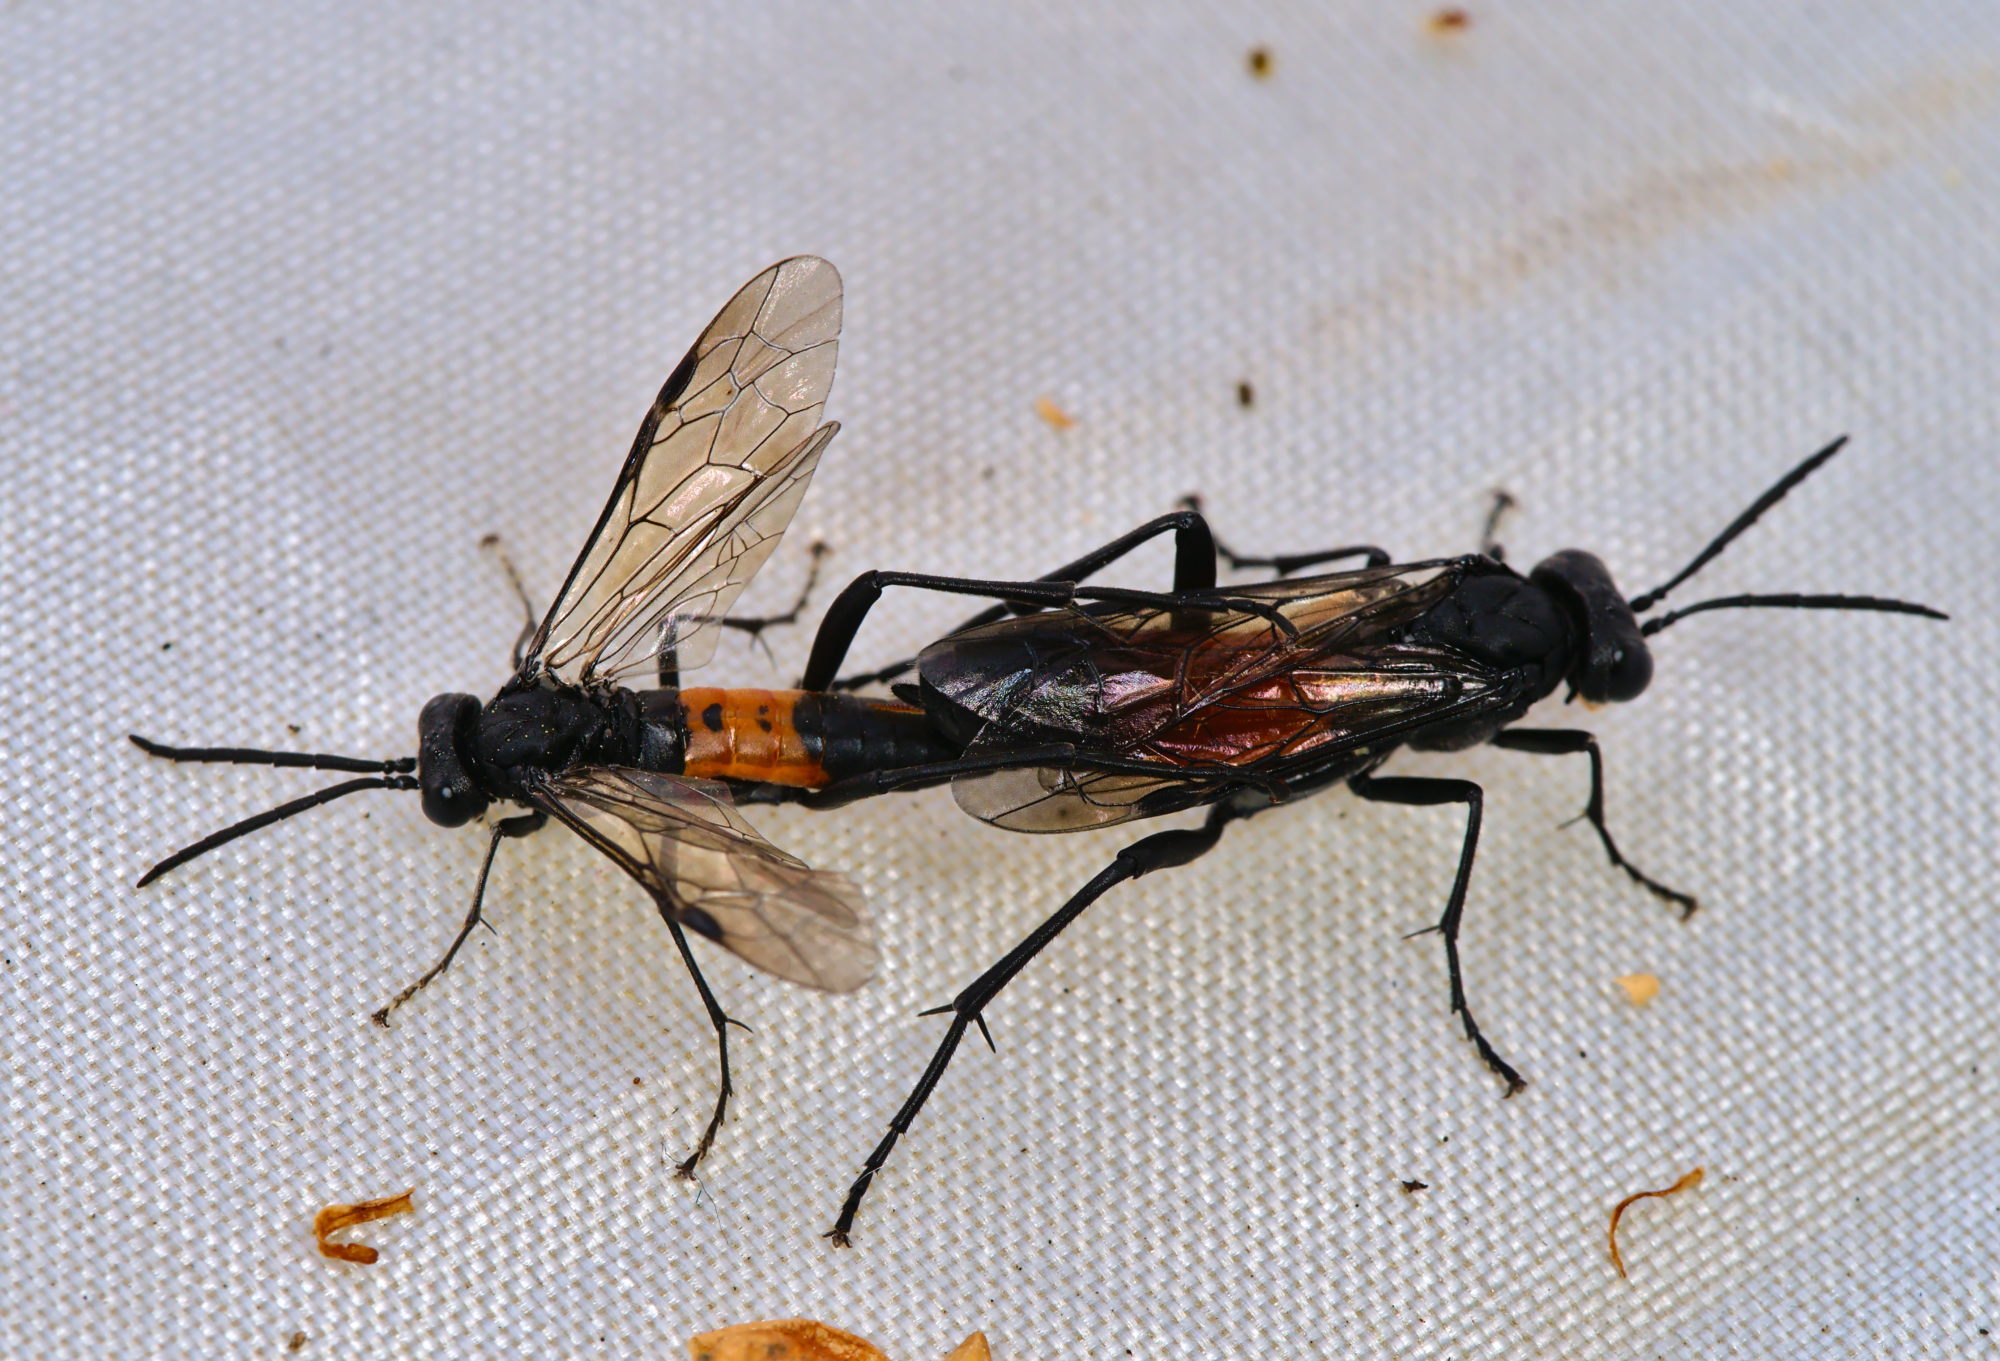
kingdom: Animalia
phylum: Arthropoda
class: Insecta
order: Hymenoptera
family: Tenthredinidae
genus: Macrophya
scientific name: Macrophya annulata
